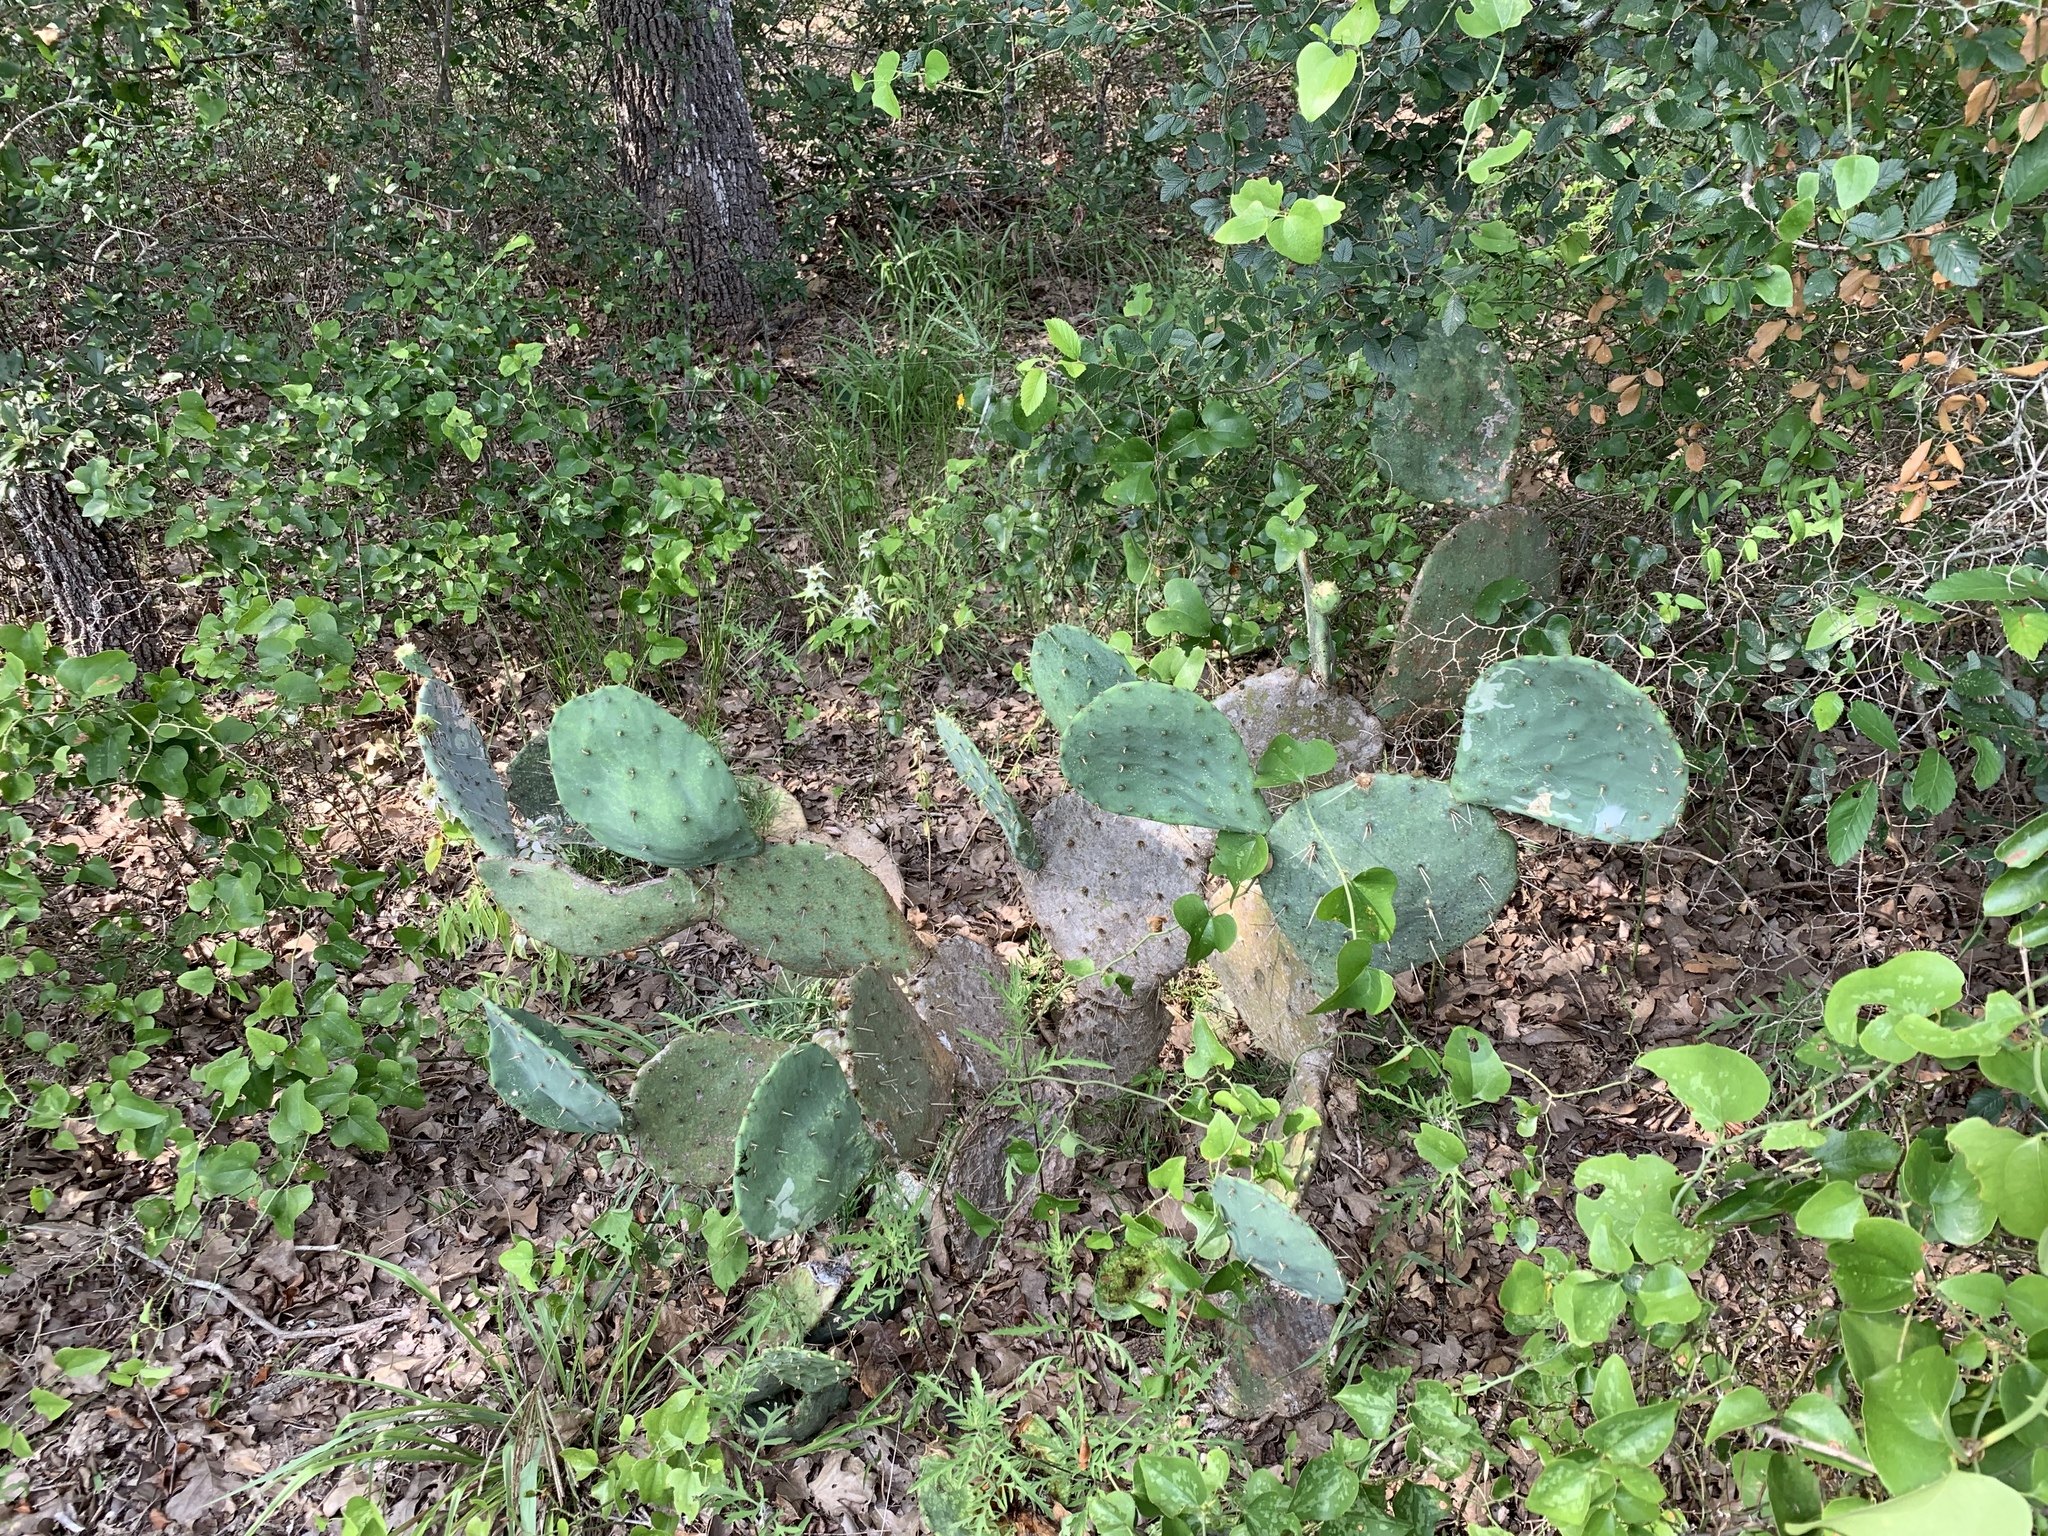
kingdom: Plantae
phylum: Tracheophyta
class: Magnoliopsida
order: Caryophyllales
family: Cactaceae
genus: Opuntia
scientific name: Opuntia orbiculata
